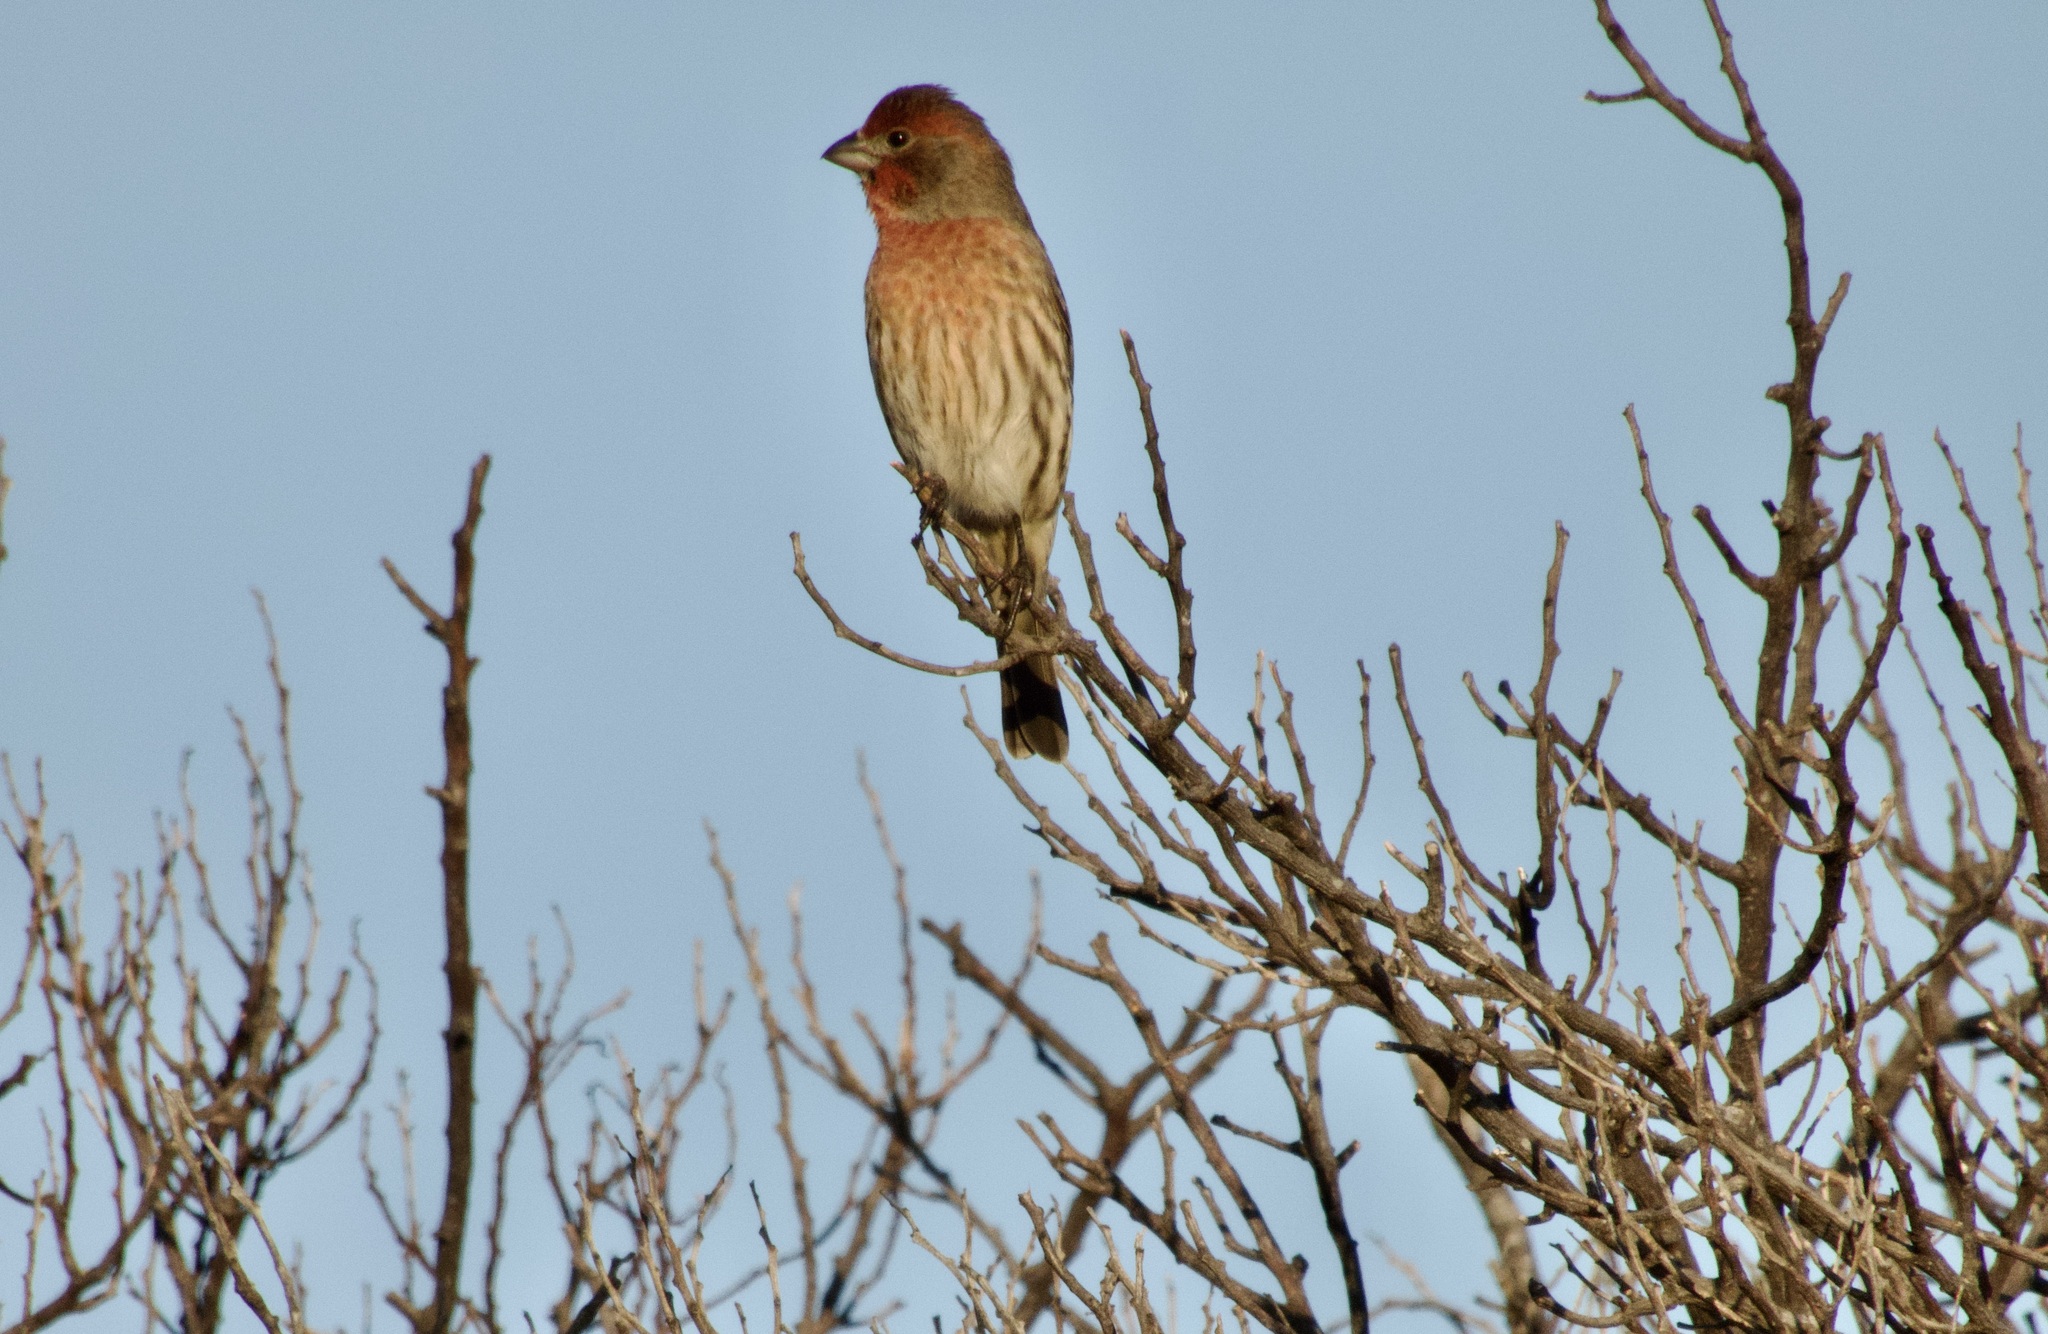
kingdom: Animalia
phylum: Chordata
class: Aves
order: Passeriformes
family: Fringillidae
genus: Haemorhous
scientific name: Haemorhous mexicanus
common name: House finch
